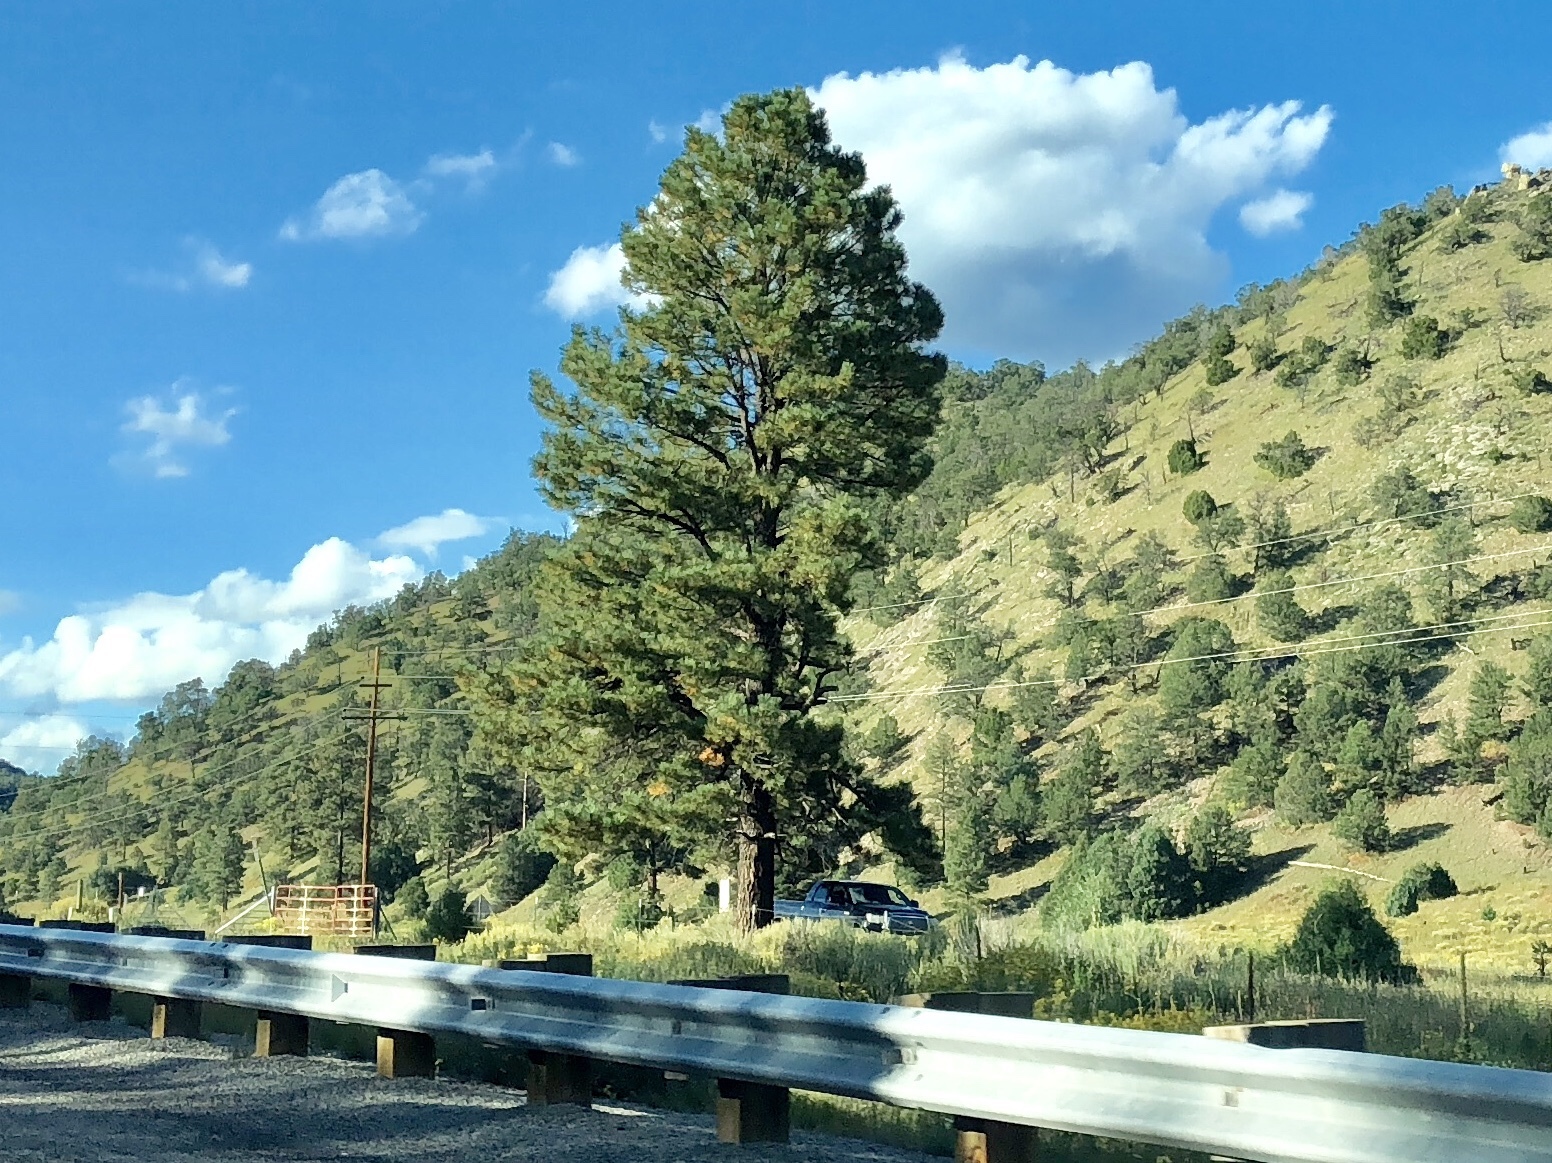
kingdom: Plantae
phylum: Tracheophyta
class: Pinopsida
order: Pinales
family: Pinaceae
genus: Pinus
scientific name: Pinus ponderosa
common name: Western yellow-pine
